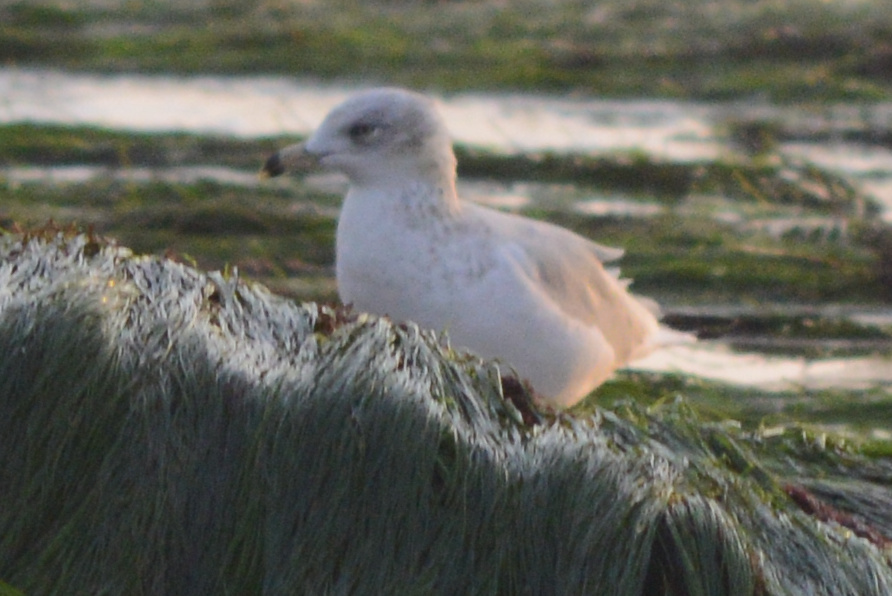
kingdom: Animalia
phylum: Chordata
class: Aves
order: Charadriiformes
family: Laridae
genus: Larus
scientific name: Larus delawarensis
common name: Ring-billed gull
